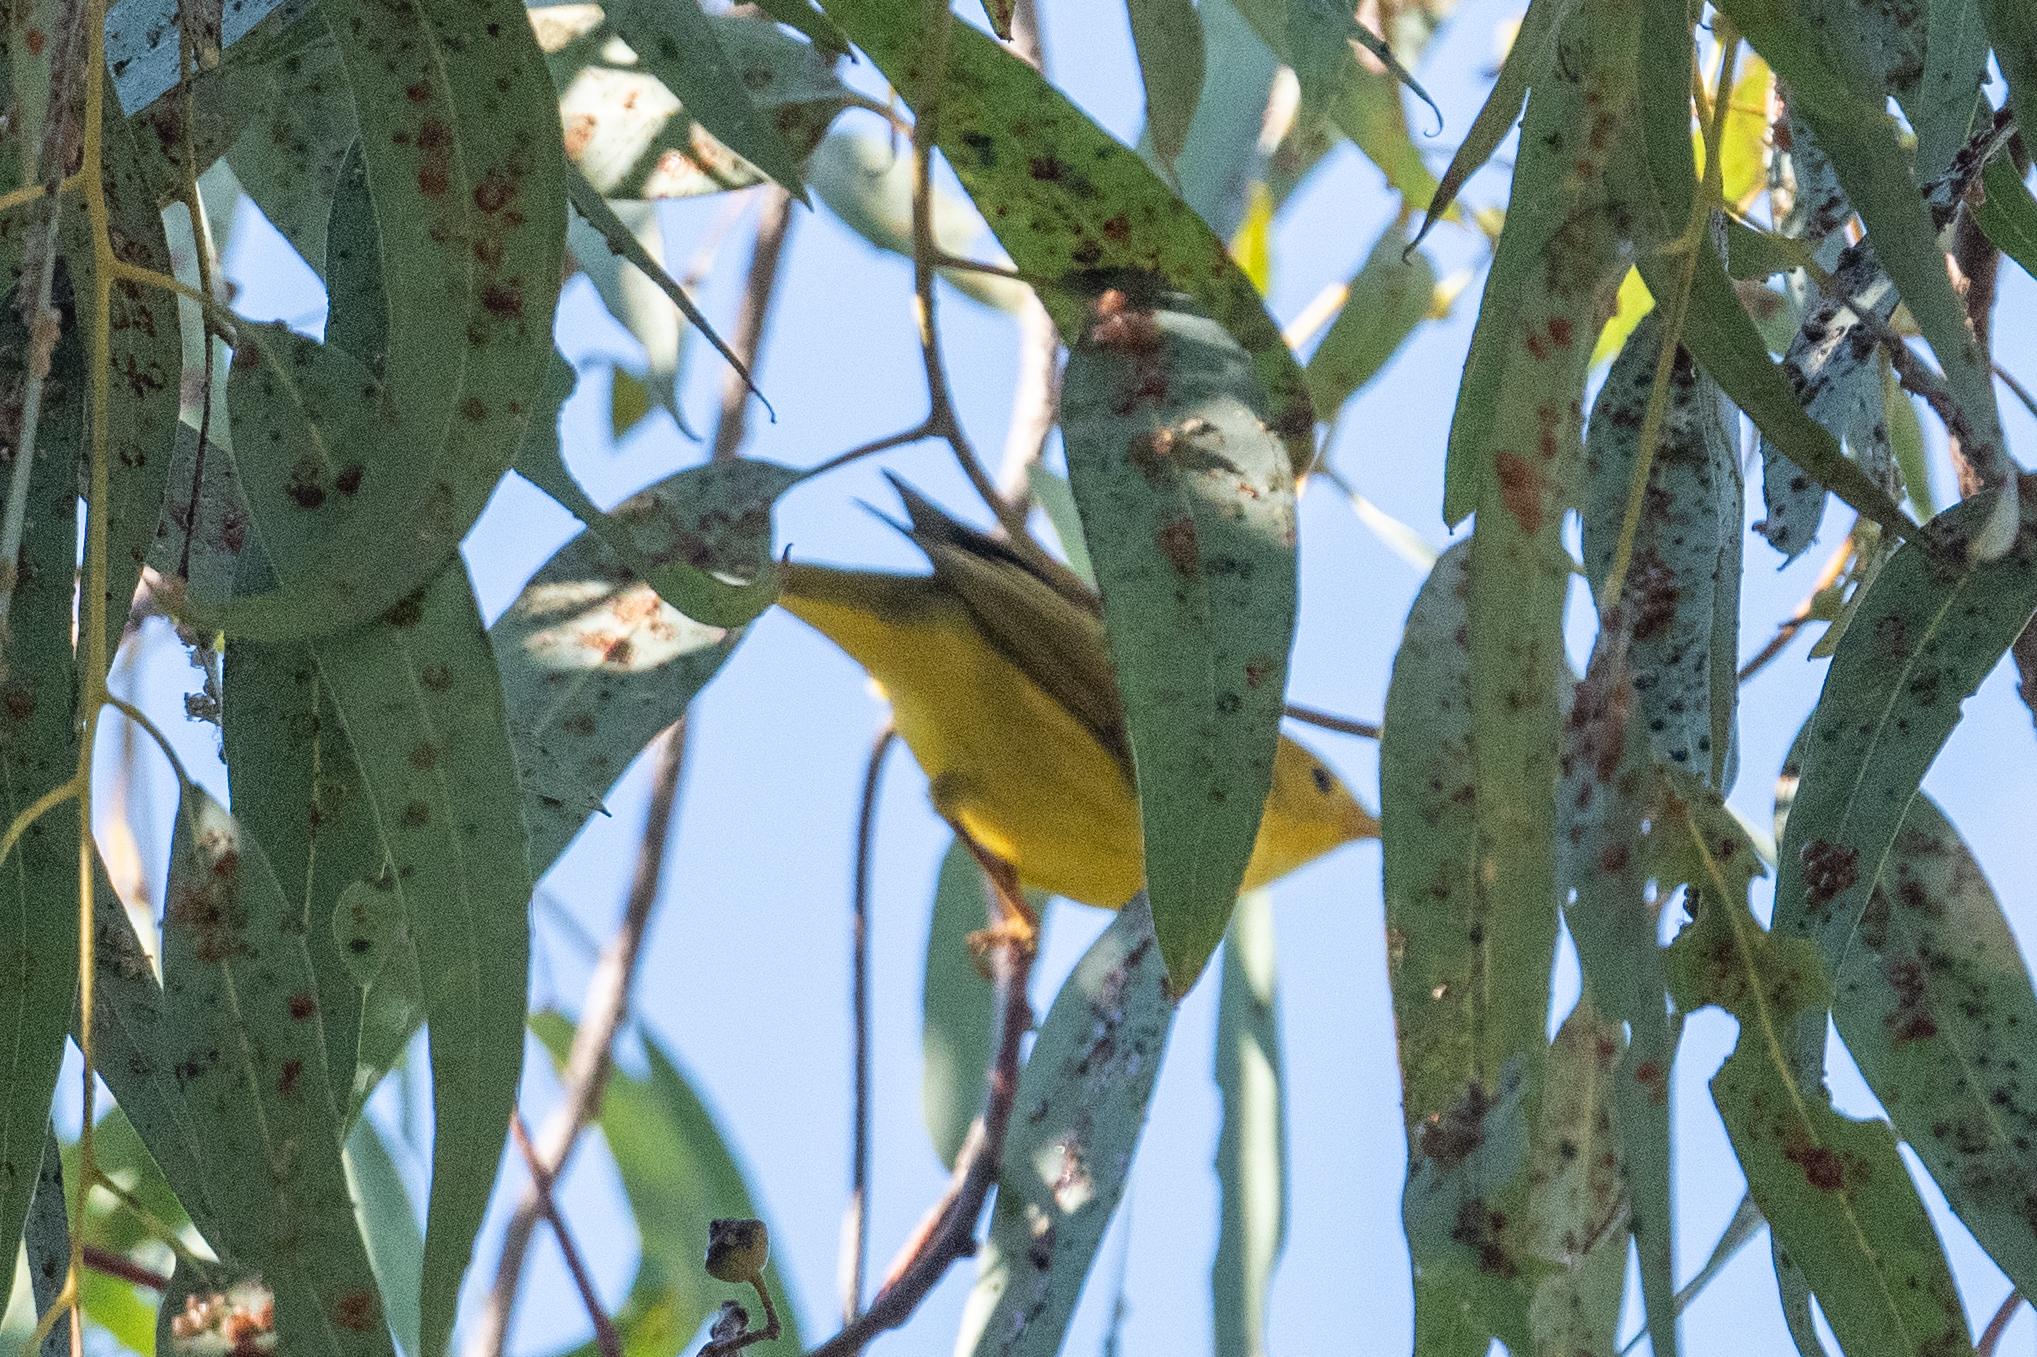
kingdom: Animalia
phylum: Chordata
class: Aves
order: Passeriformes
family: Parulidae
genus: Setophaga
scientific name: Setophaga petechia
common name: Yellow warbler
